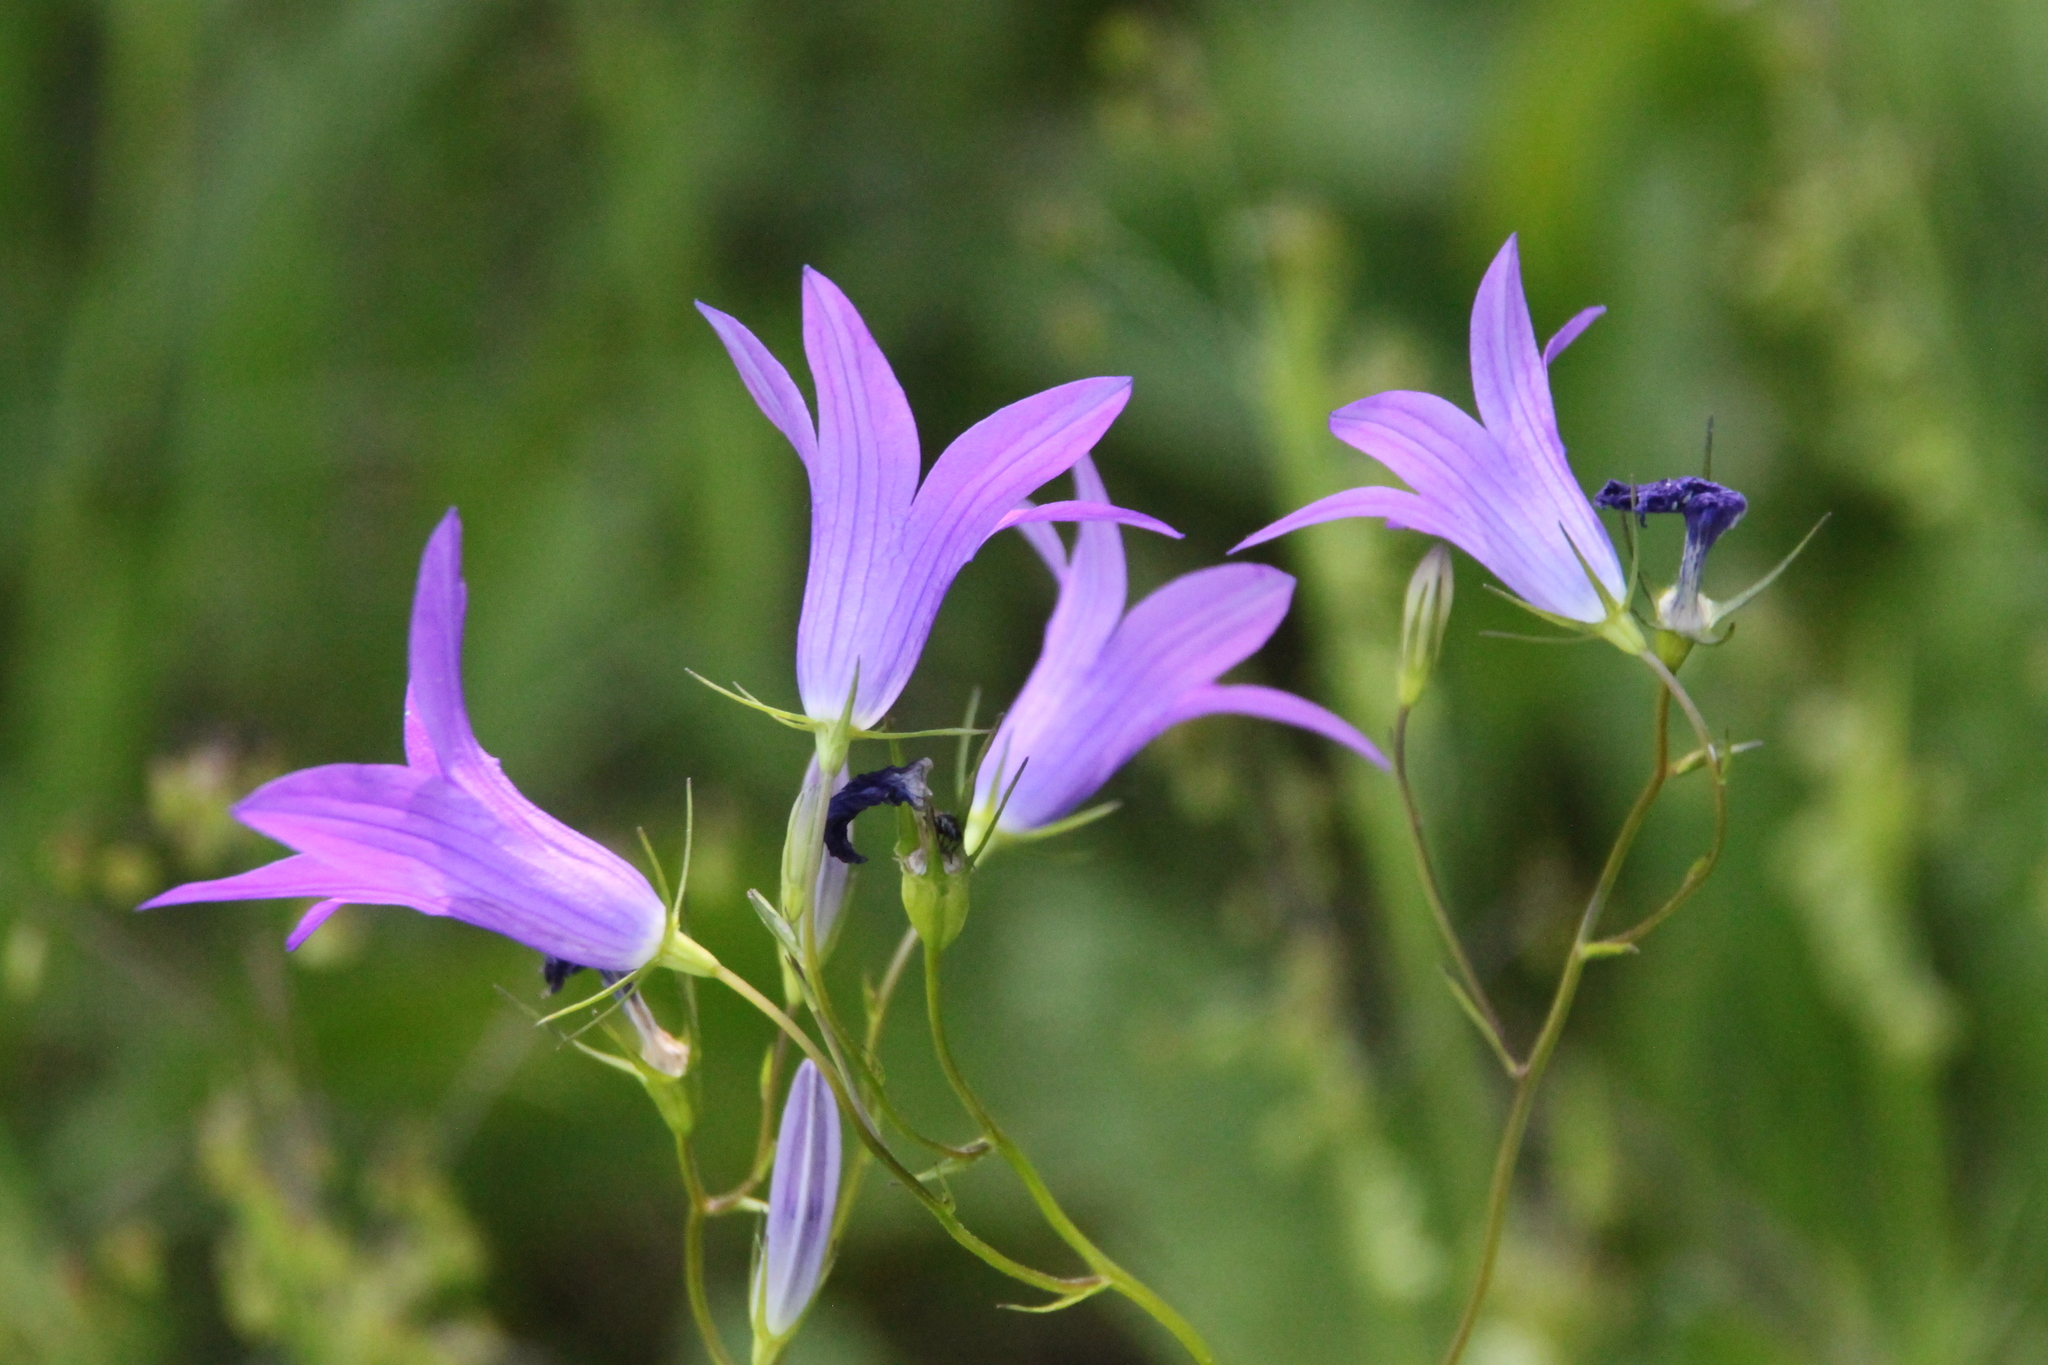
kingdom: Plantae
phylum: Tracheophyta
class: Magnoliopsida
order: Asterales
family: Campanulaceae
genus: Campanula
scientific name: Campanula patula
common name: Spreading bellflower
